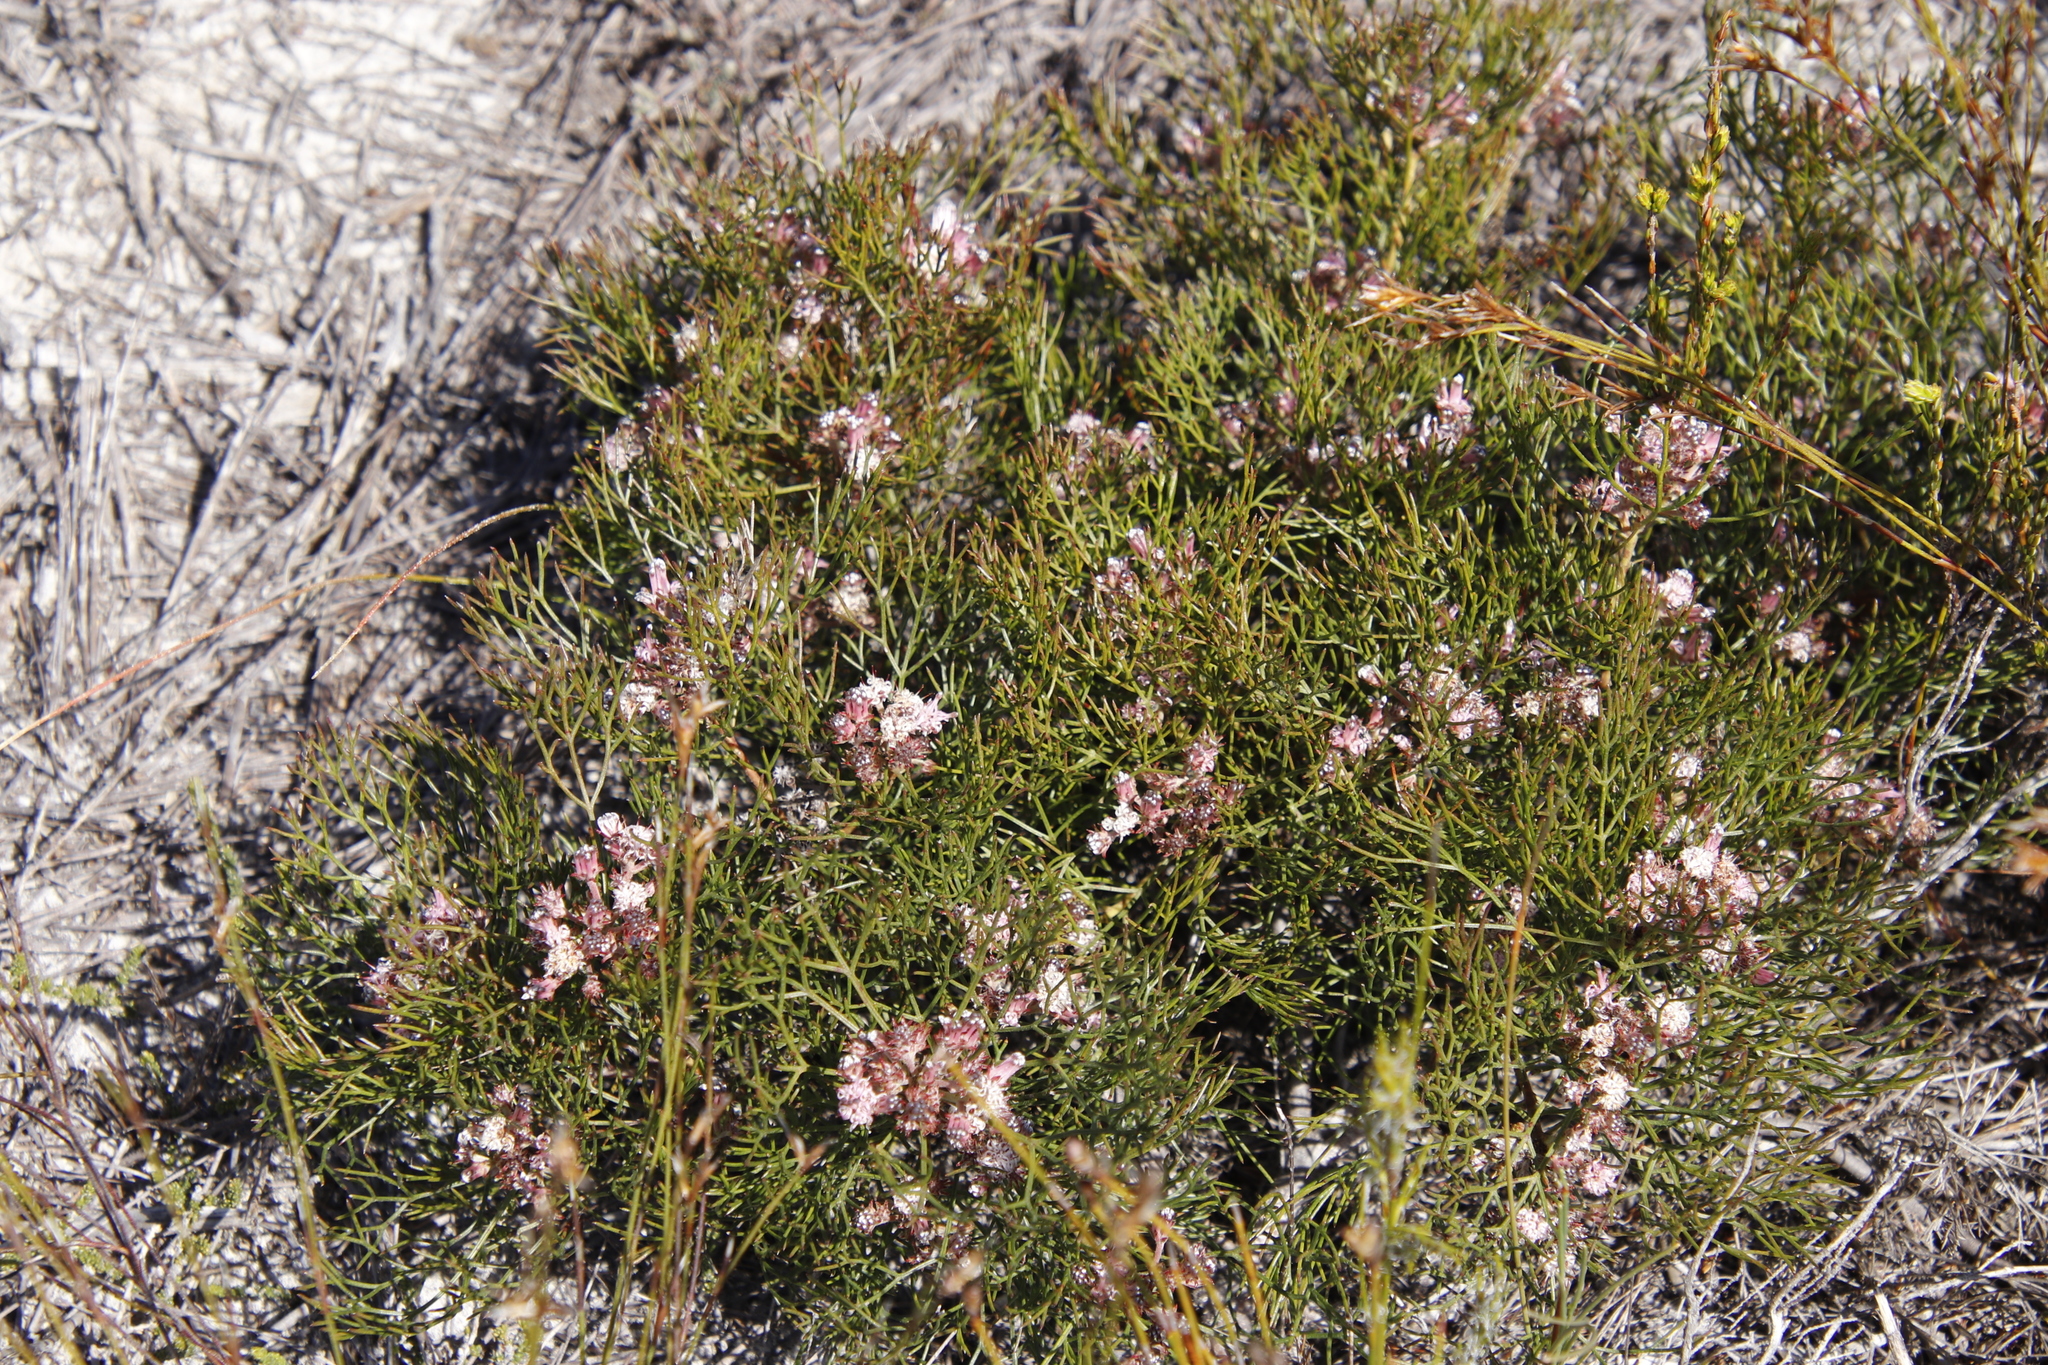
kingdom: Plantae
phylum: Tracheophyta
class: Magnoliopsida
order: Proteales
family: Proteaceae
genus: Serruria
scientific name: Serruria fasciflora
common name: Common pin spiderhead
